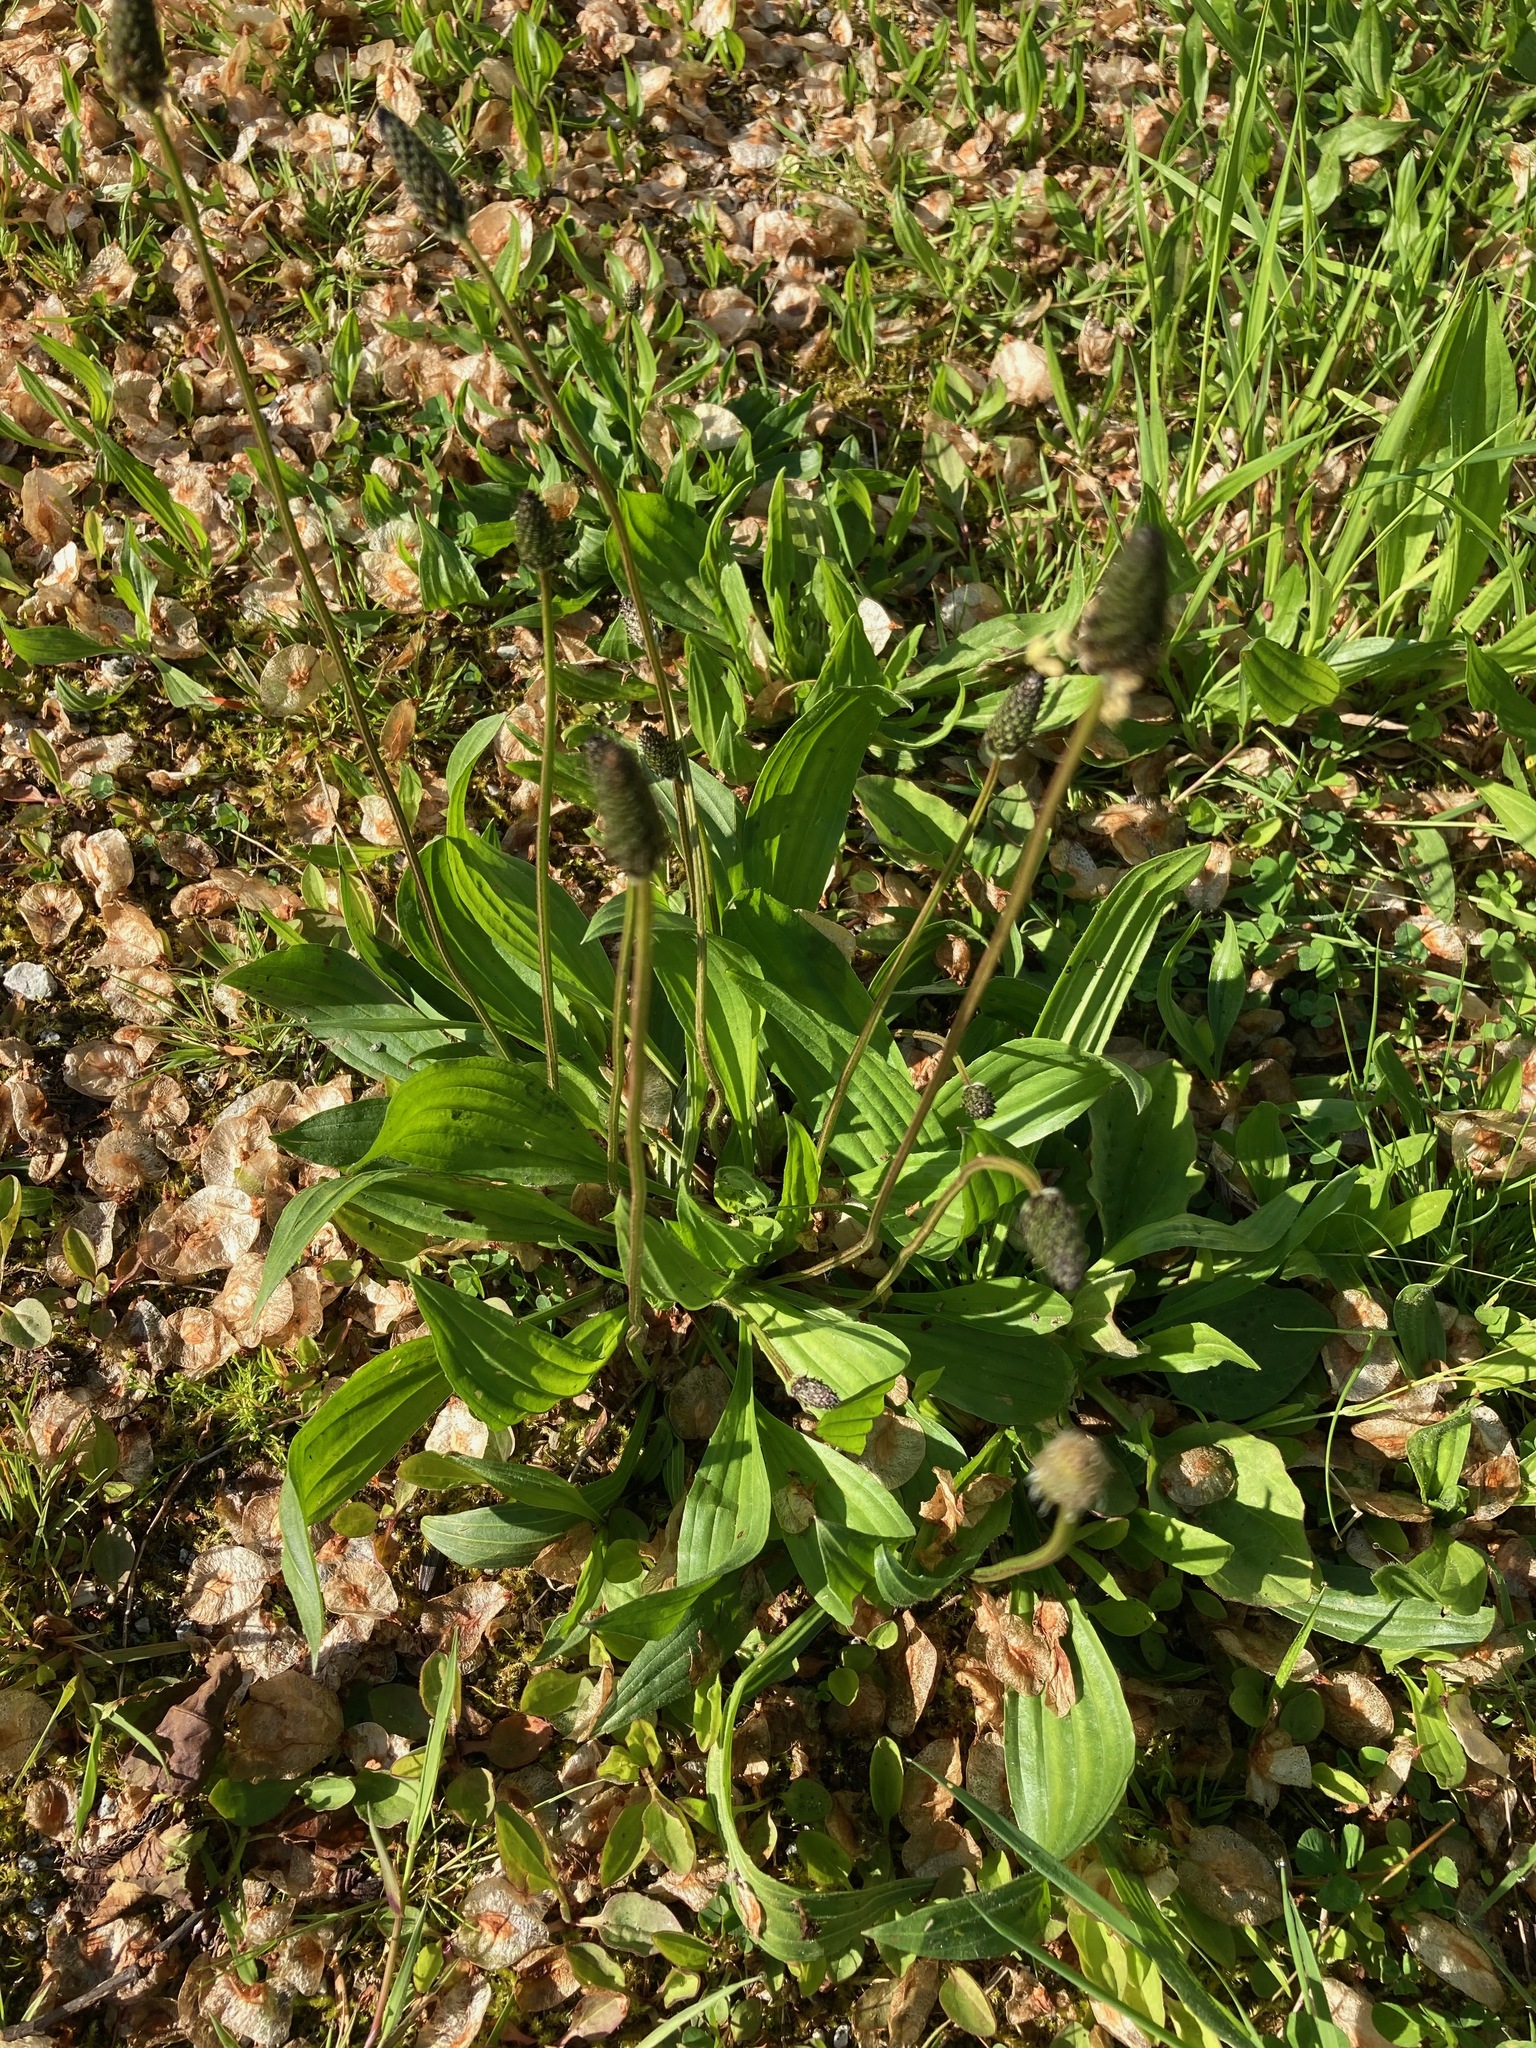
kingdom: Plantae
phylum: Tracheophyta
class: Magnoliopsida
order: Lamiales
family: Plantaginaceae
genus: Plantago
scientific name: Plantago lanceolata
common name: Ribwort plantain
